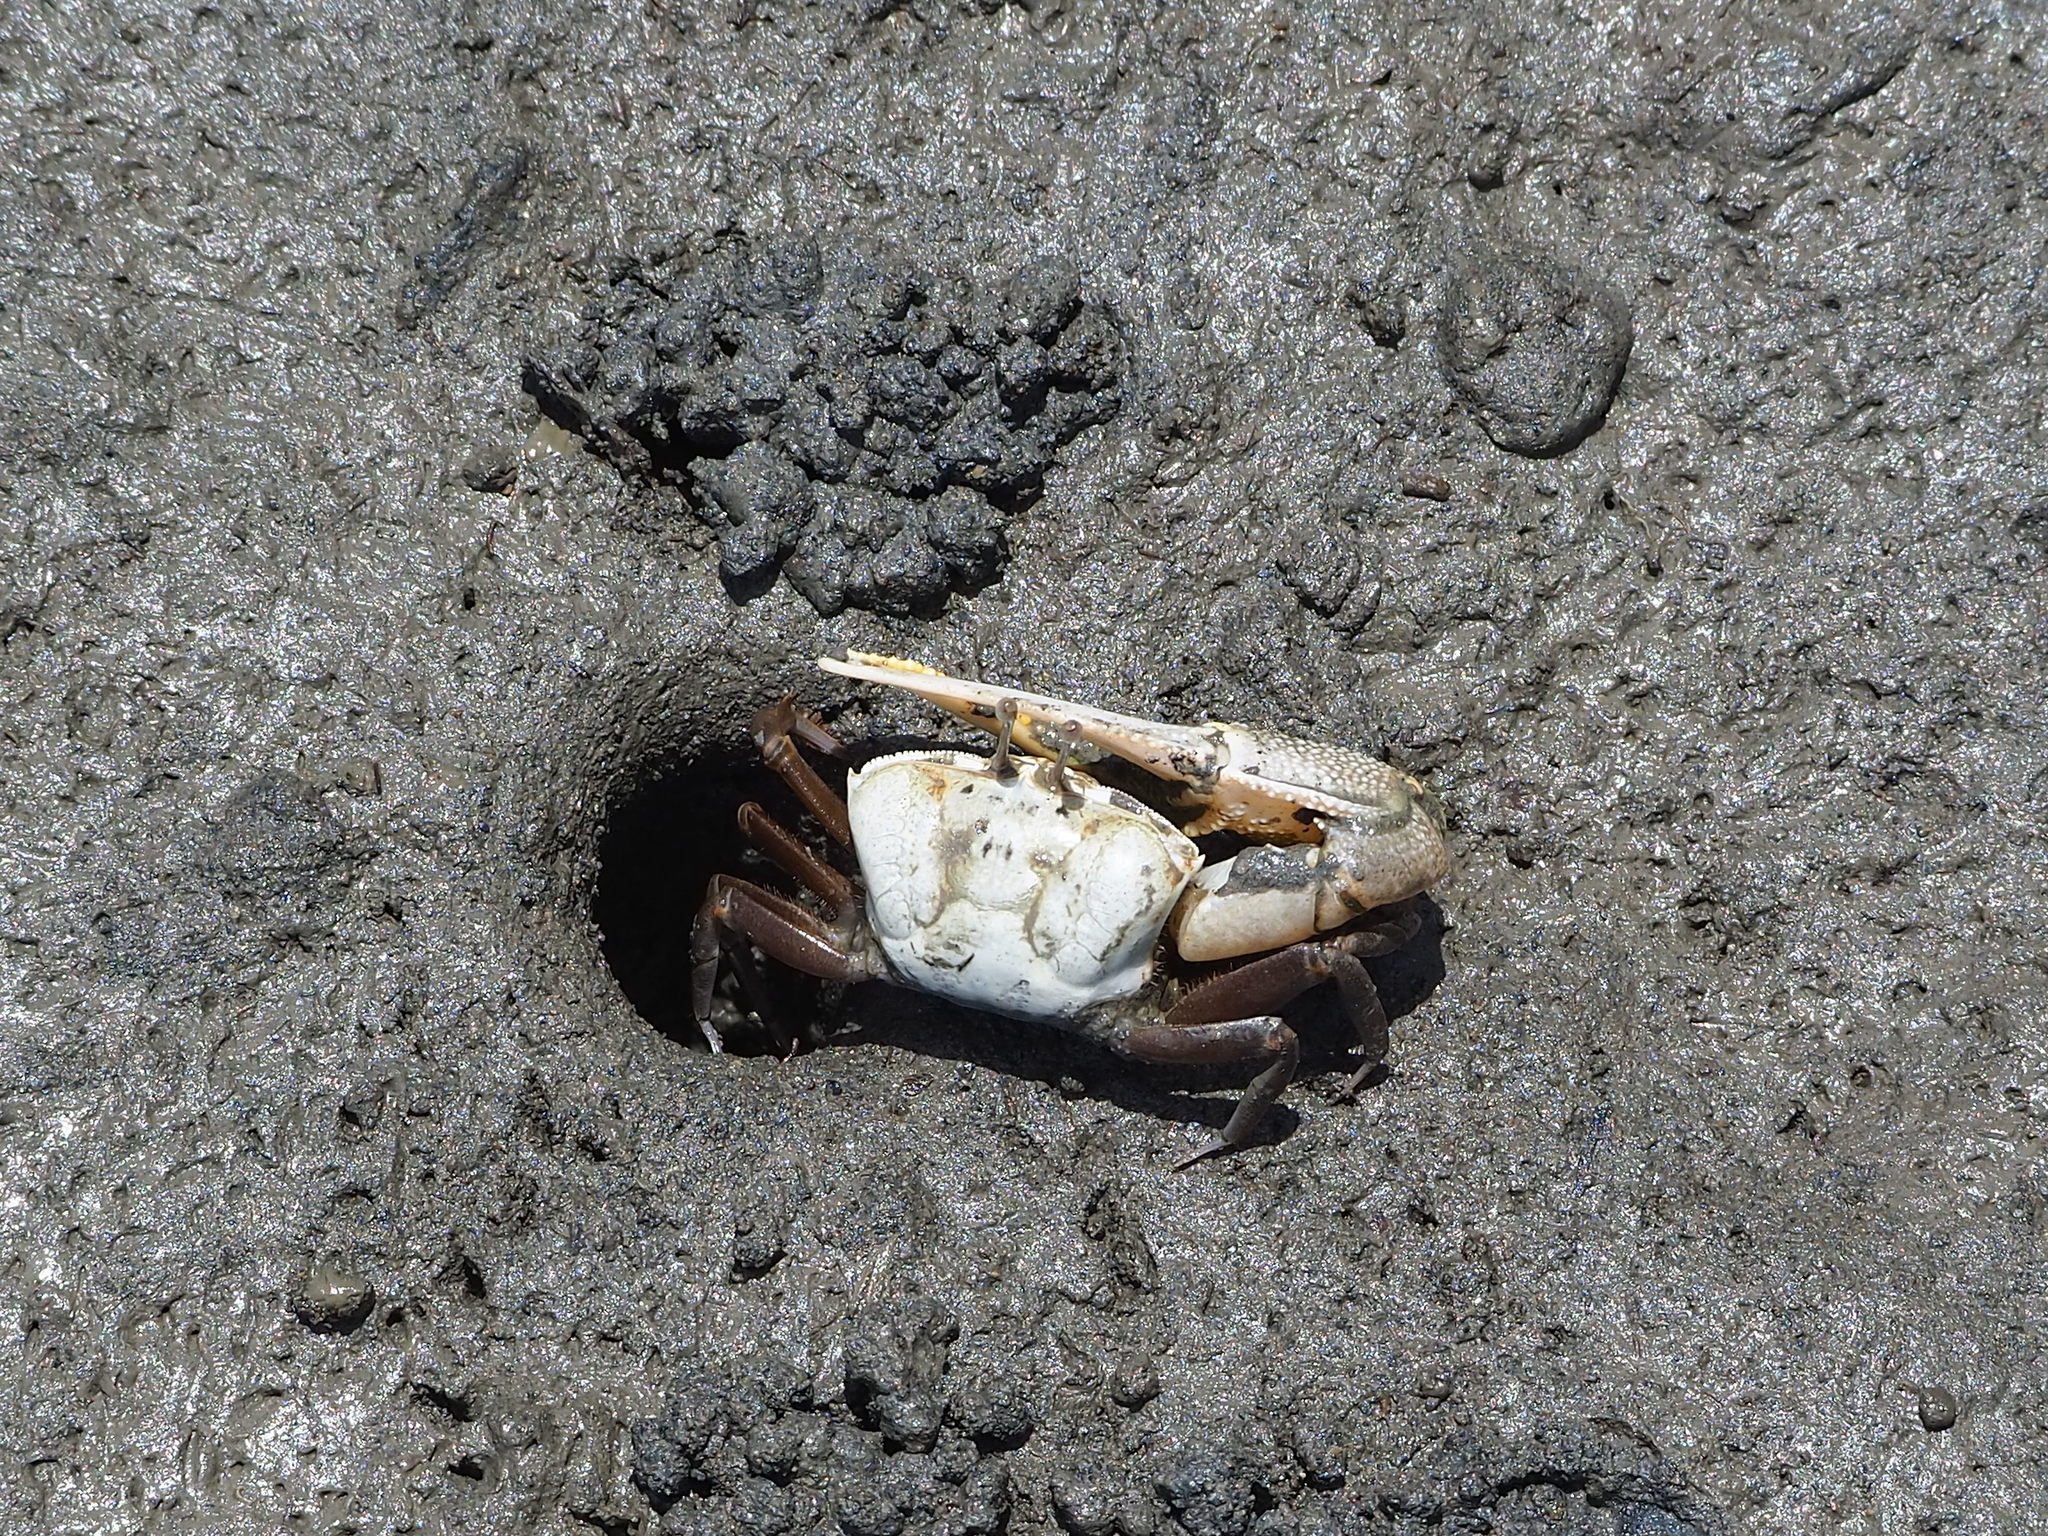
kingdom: Animalia
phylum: Arthropoda
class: Malacostraca
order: Decapoda
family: Ocypodidae
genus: Gelasimus
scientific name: Gelasimus borealis
